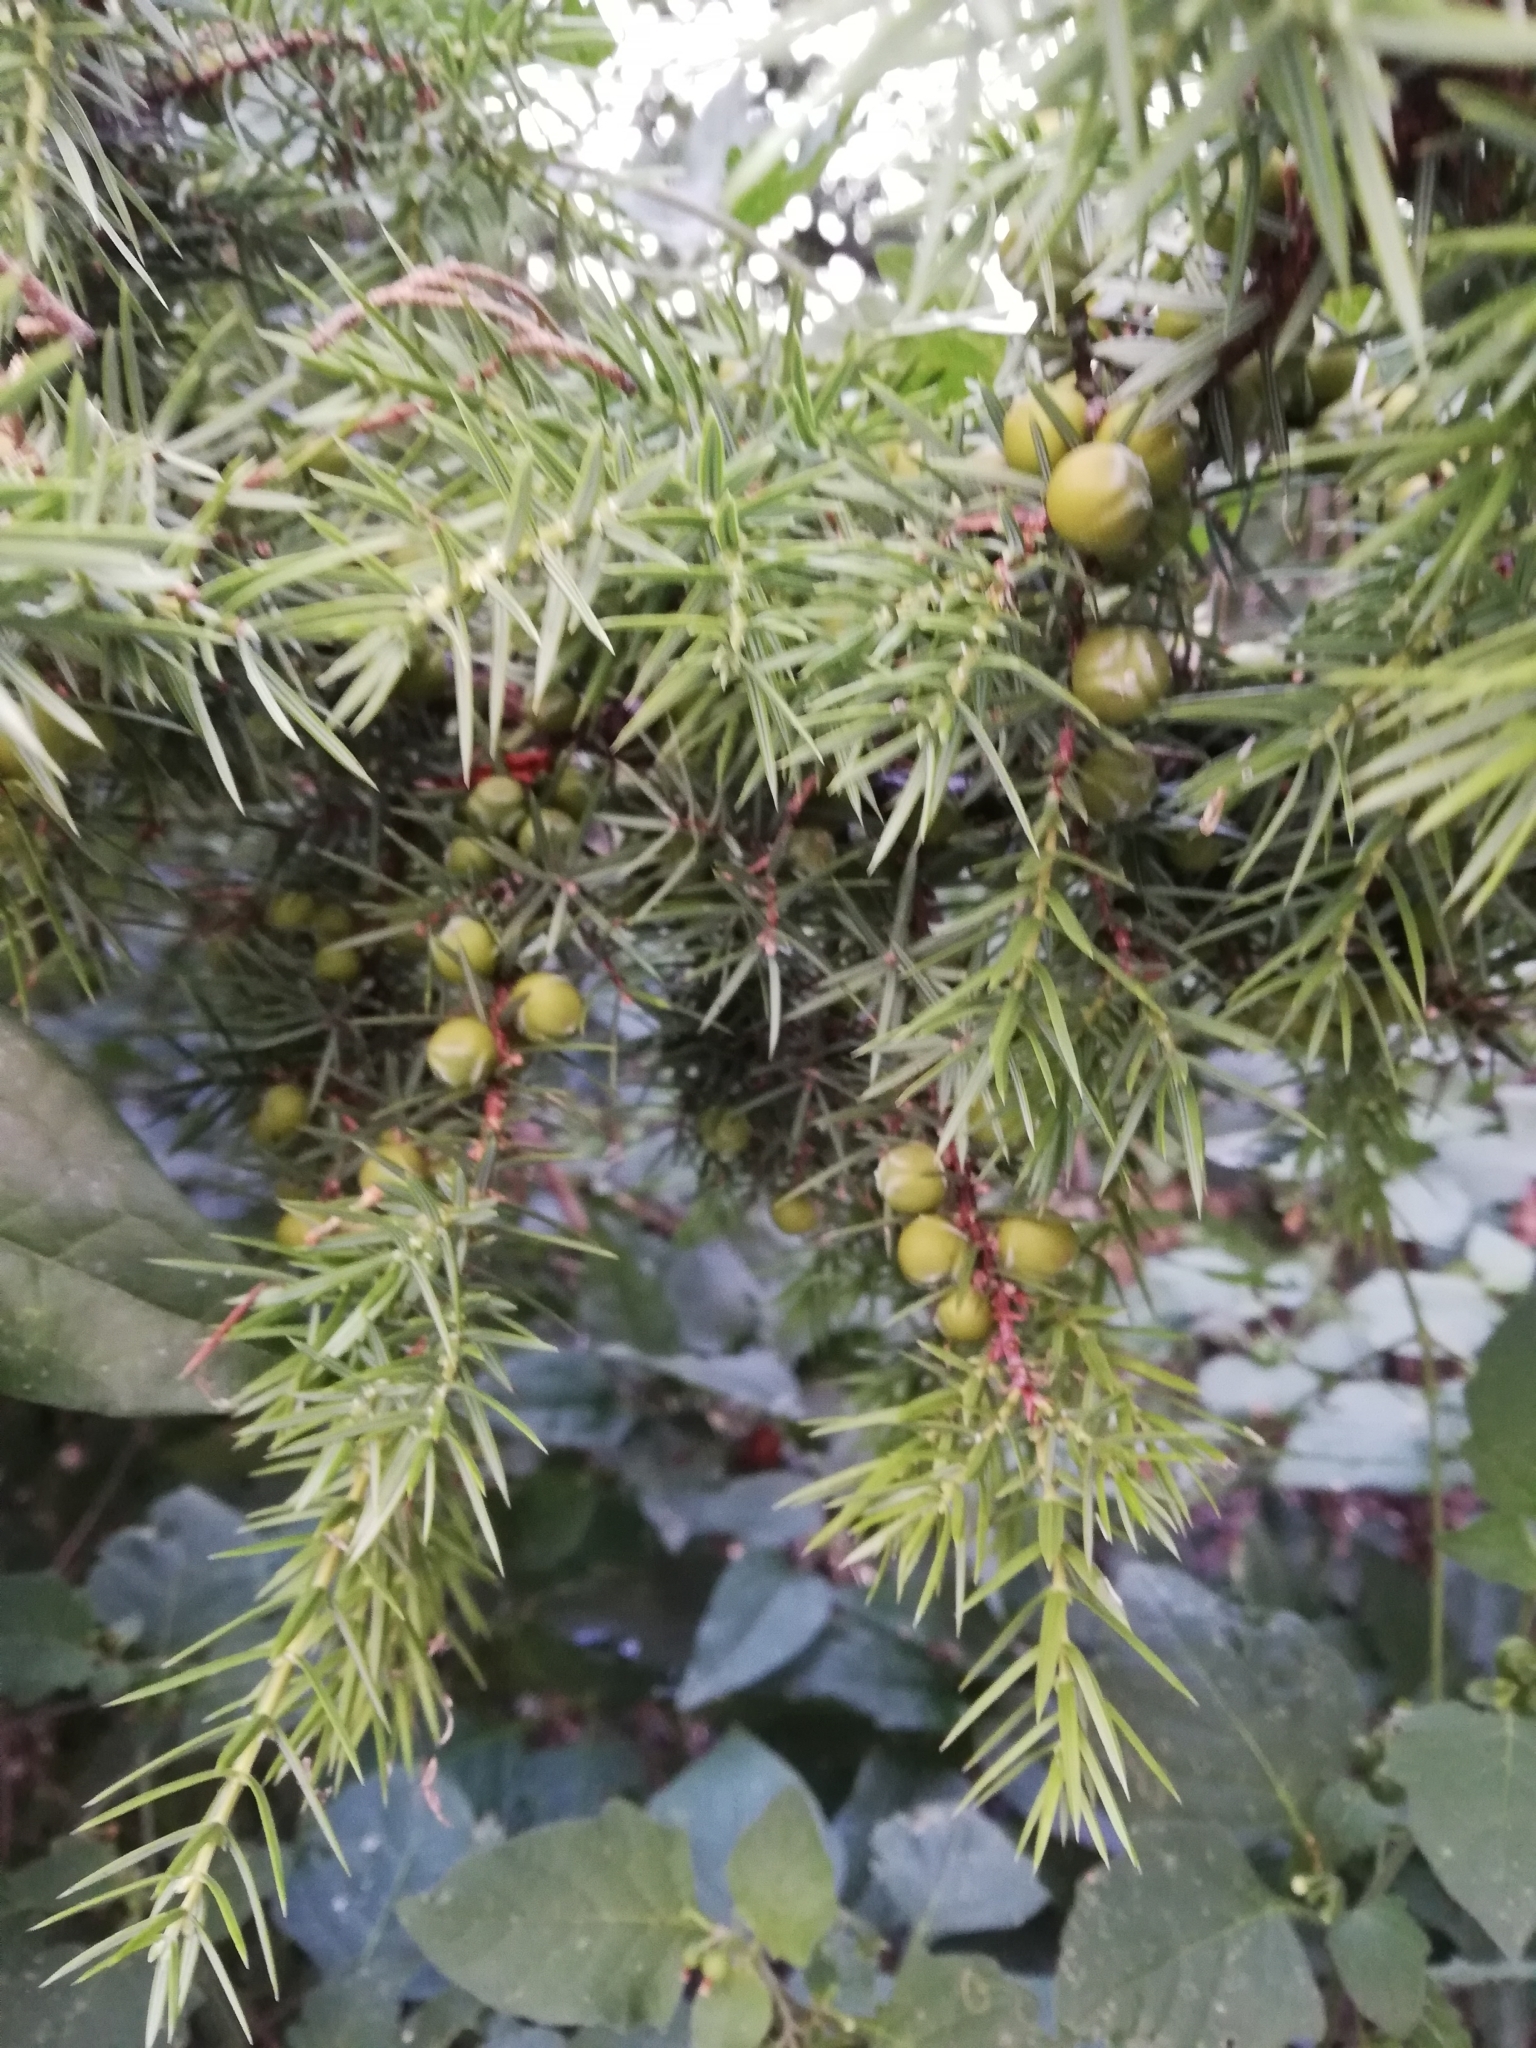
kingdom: Plantae
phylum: Tracheophyta
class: Pinopsida
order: Pinales
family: Cupressaceae
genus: Juniperus
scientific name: Juniperus oxycedrus
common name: Prickly juniper
